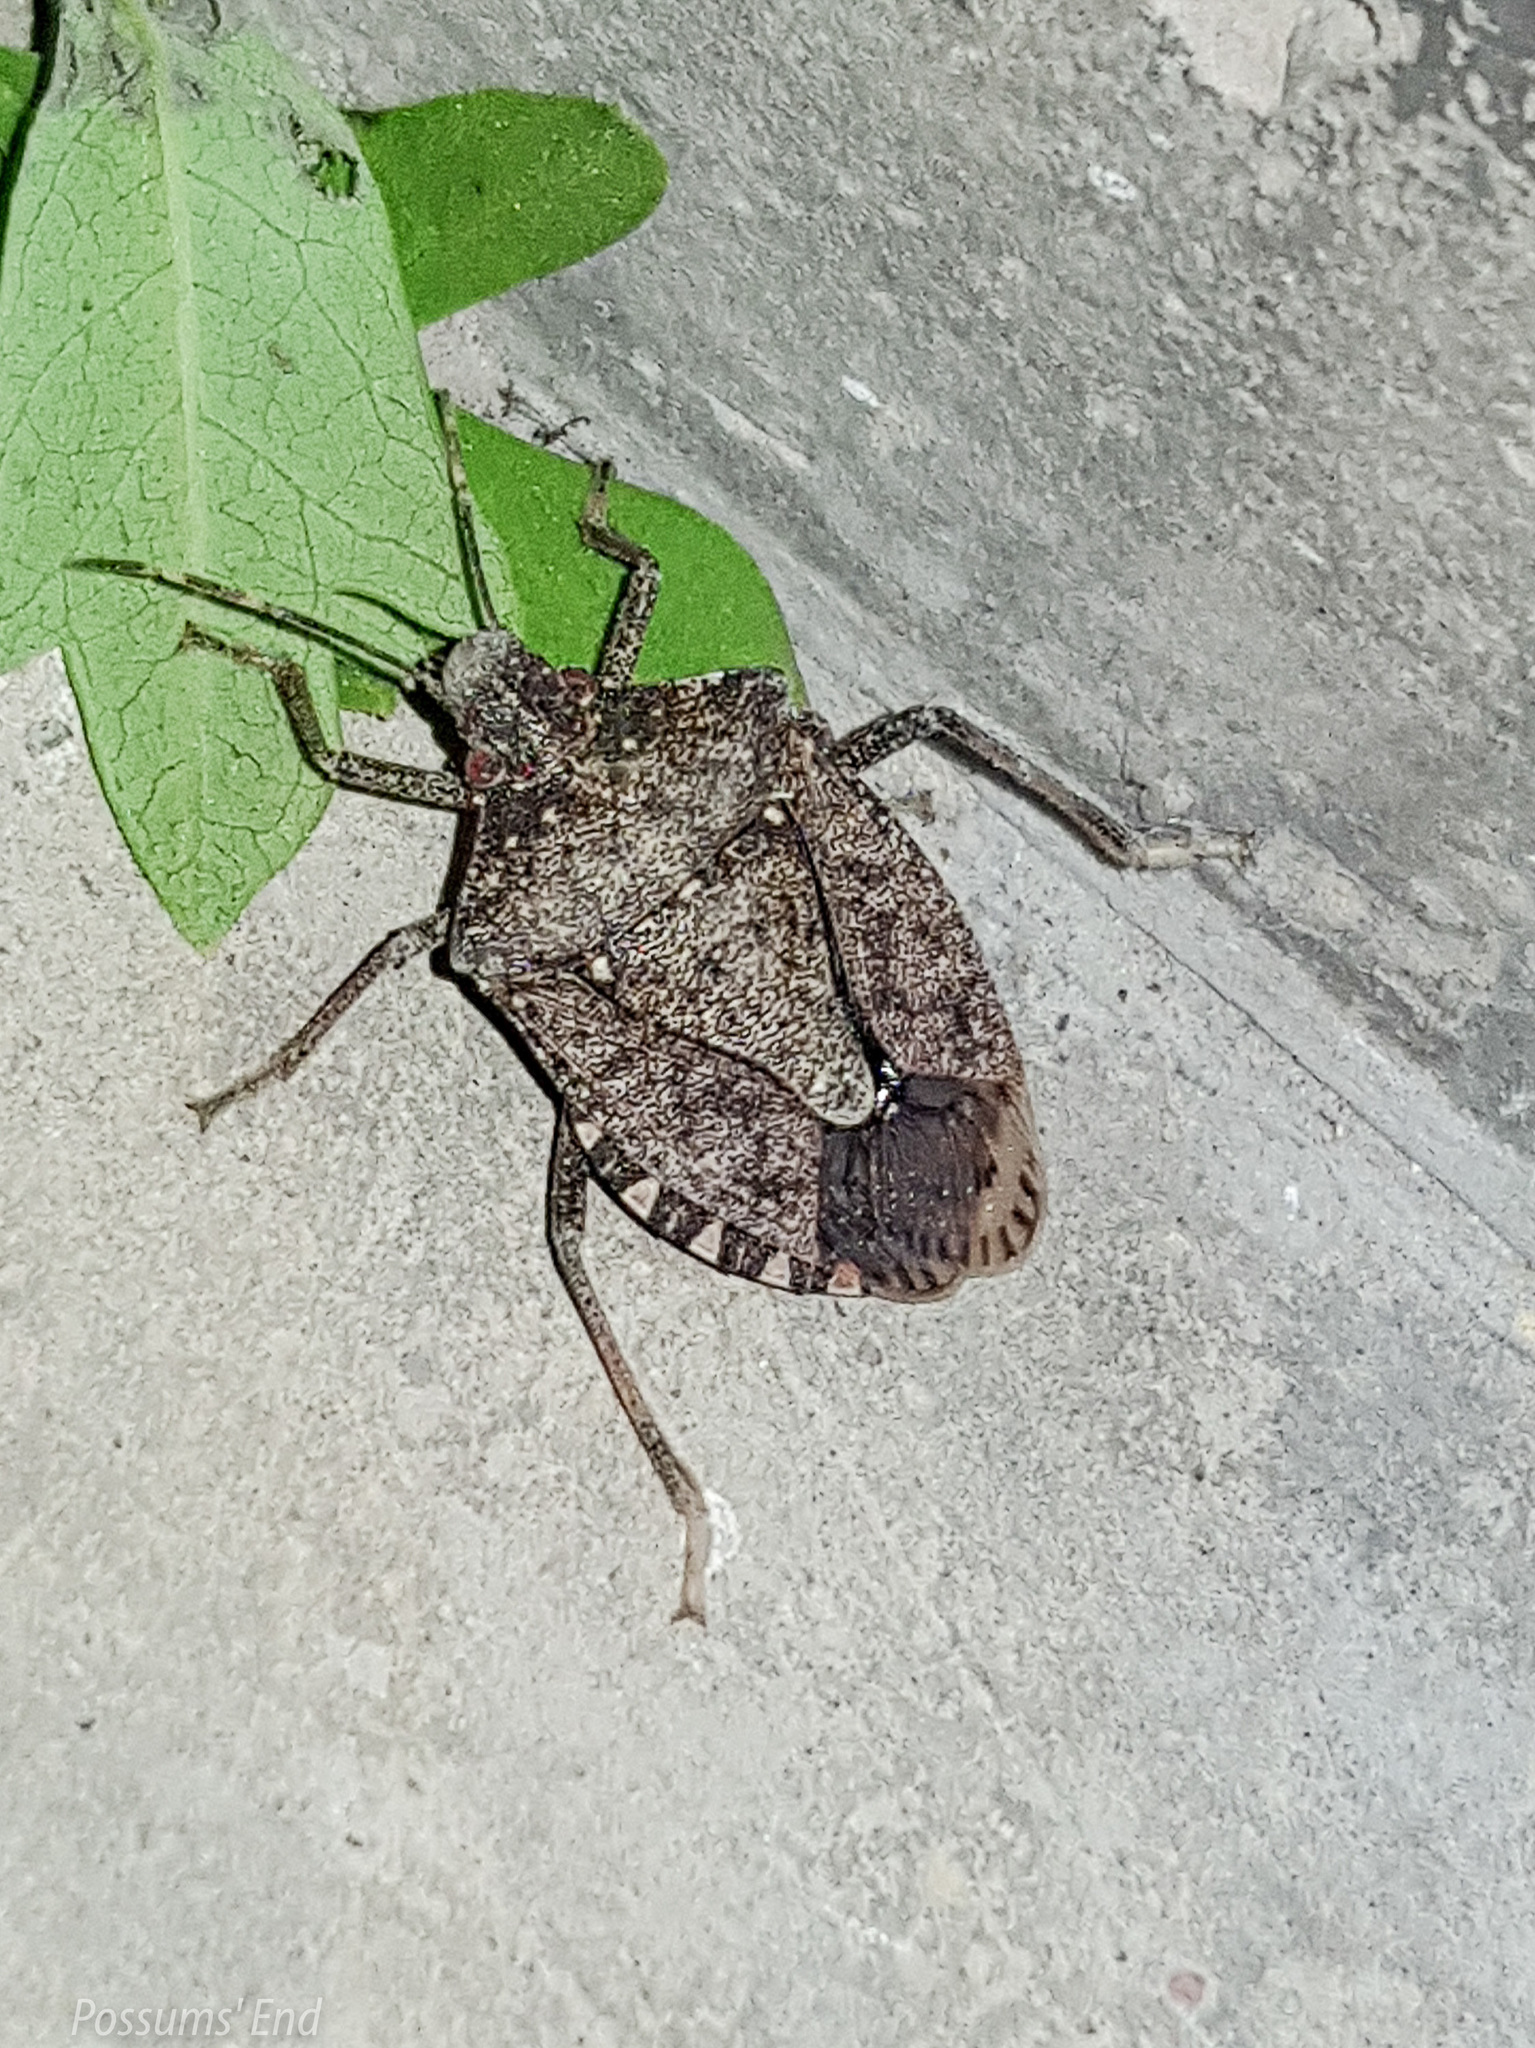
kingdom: Animalia
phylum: Arthropoda
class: Insecta
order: Hemiptera
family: Pentatomidae
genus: Halyomorpha
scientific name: Halyomorpha halys
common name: Brown marmorated stink bug
